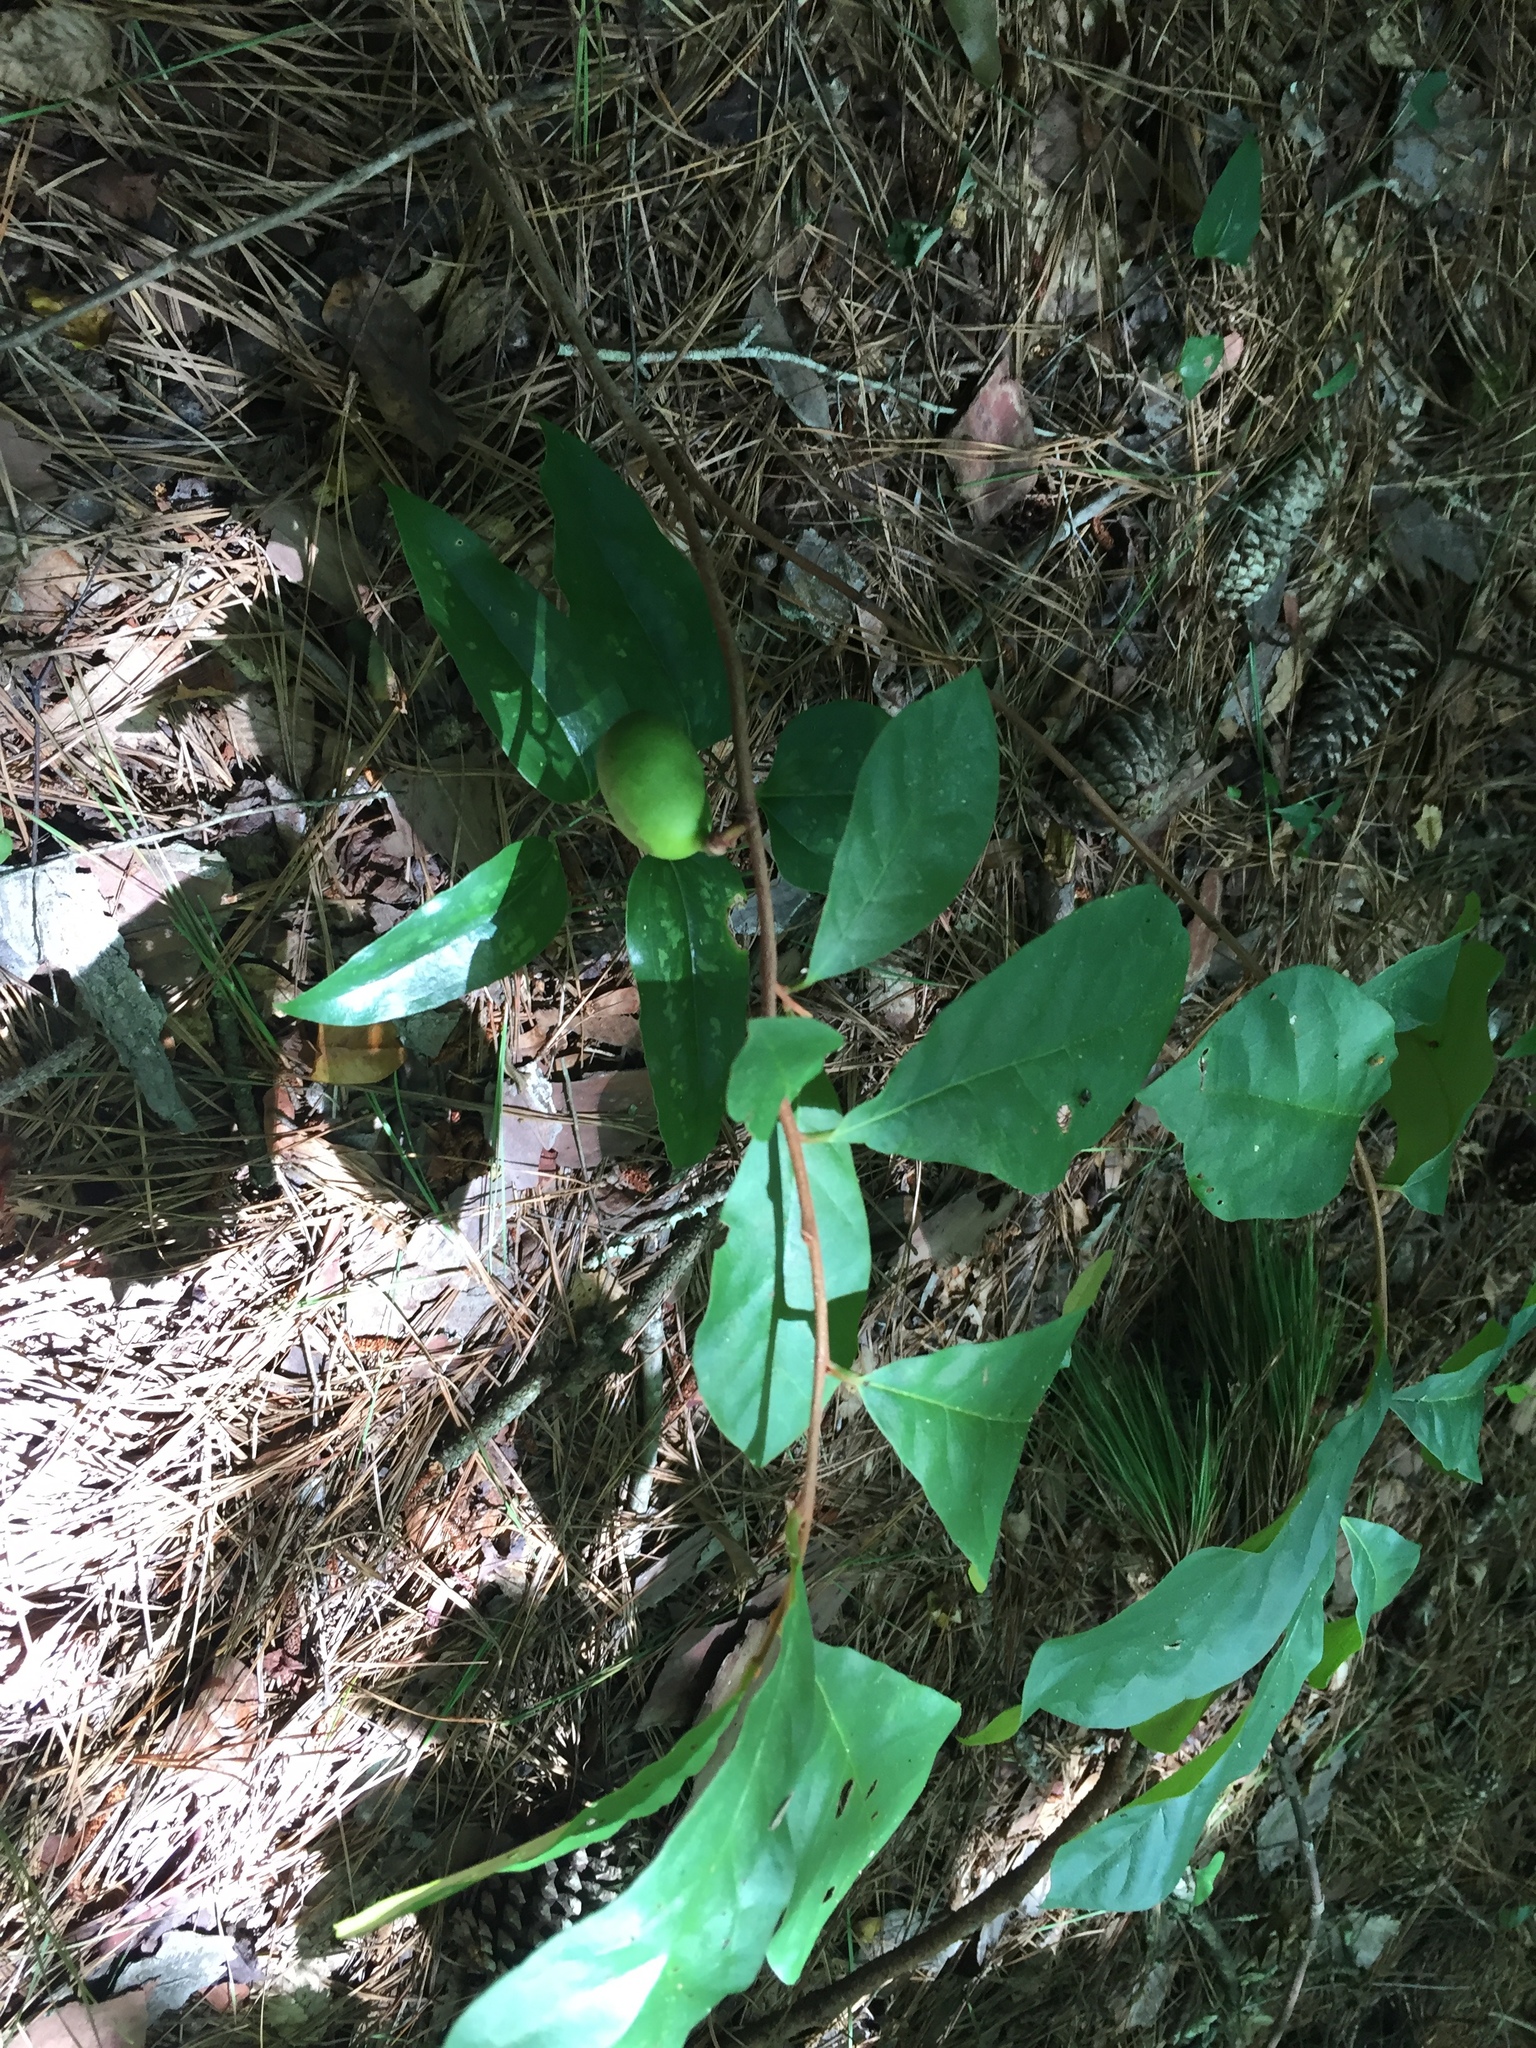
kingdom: Plantae
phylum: Tracheophyta
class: Magnoliopsida
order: Magnoliales
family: Annonaceae
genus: Asimina
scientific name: Asimina parviflora
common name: Dwarf pawpaw
